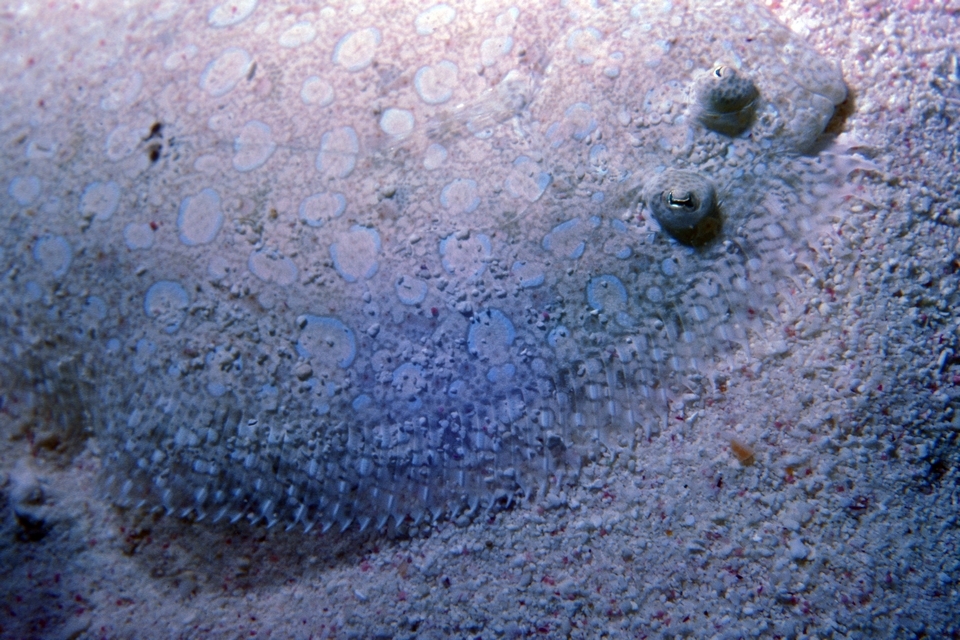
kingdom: Animalia
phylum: Chordata
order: Pleuronectiformes
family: Bothidae
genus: Bothus
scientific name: Bothus lunatus
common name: Peacock flounder
